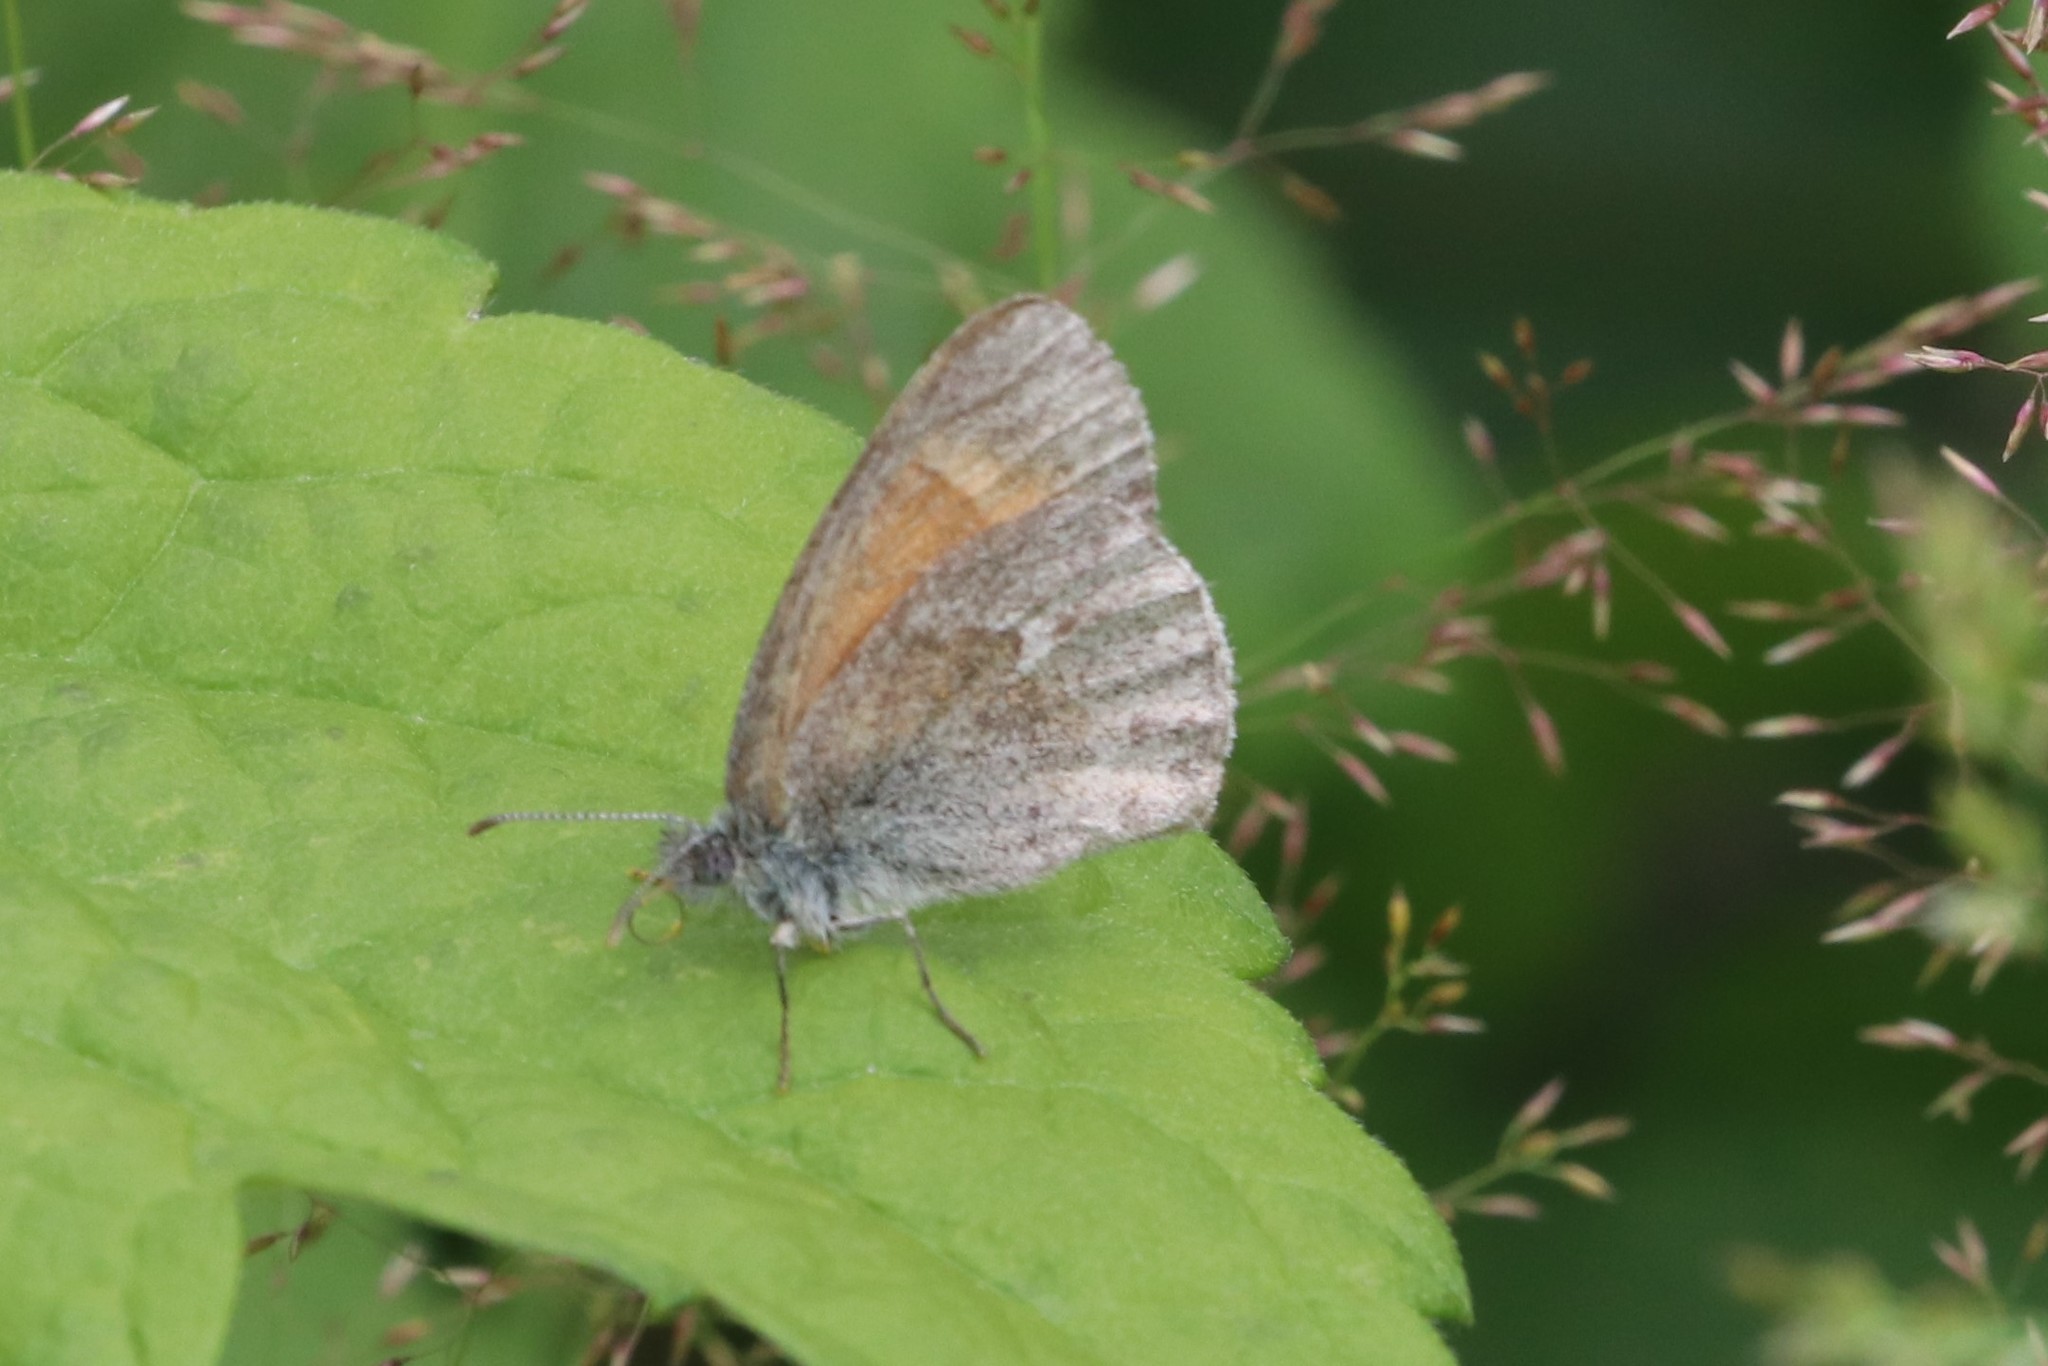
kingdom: Animalia
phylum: Arthropoda
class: Insecta
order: Lepidoptera
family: Nymphalidae
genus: Coenonympha
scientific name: Coenonympha california
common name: Common ringlet
